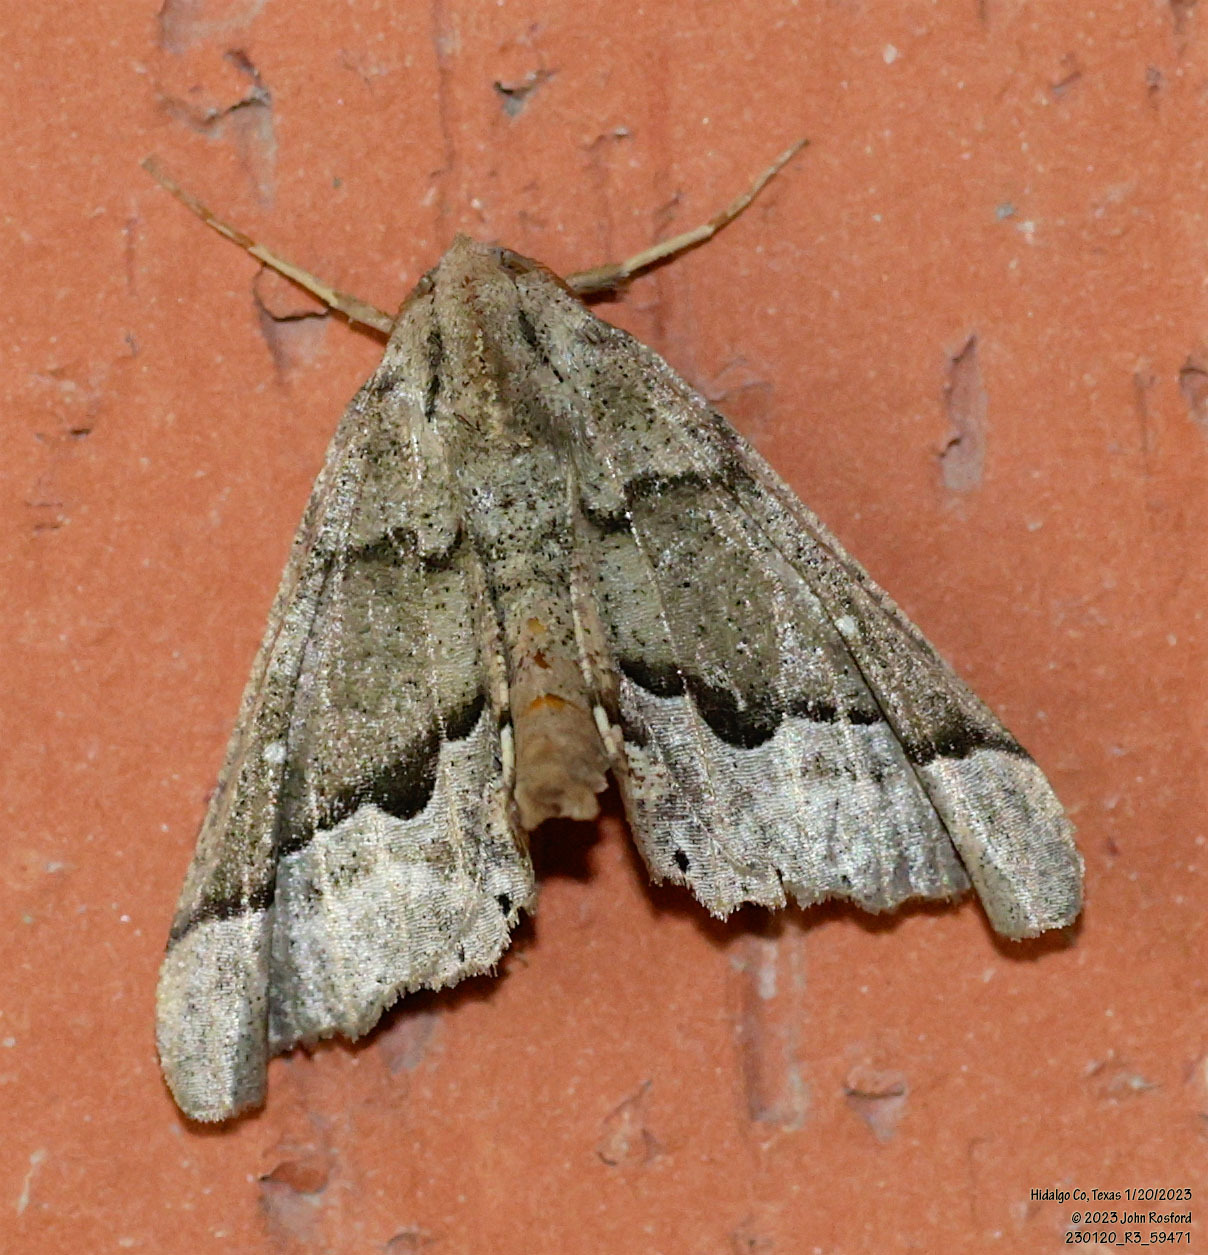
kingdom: Animalia
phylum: Arthropoda
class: Insecta
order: Lepidoptera
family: Geometridae
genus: Pero
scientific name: Pero meskaria
